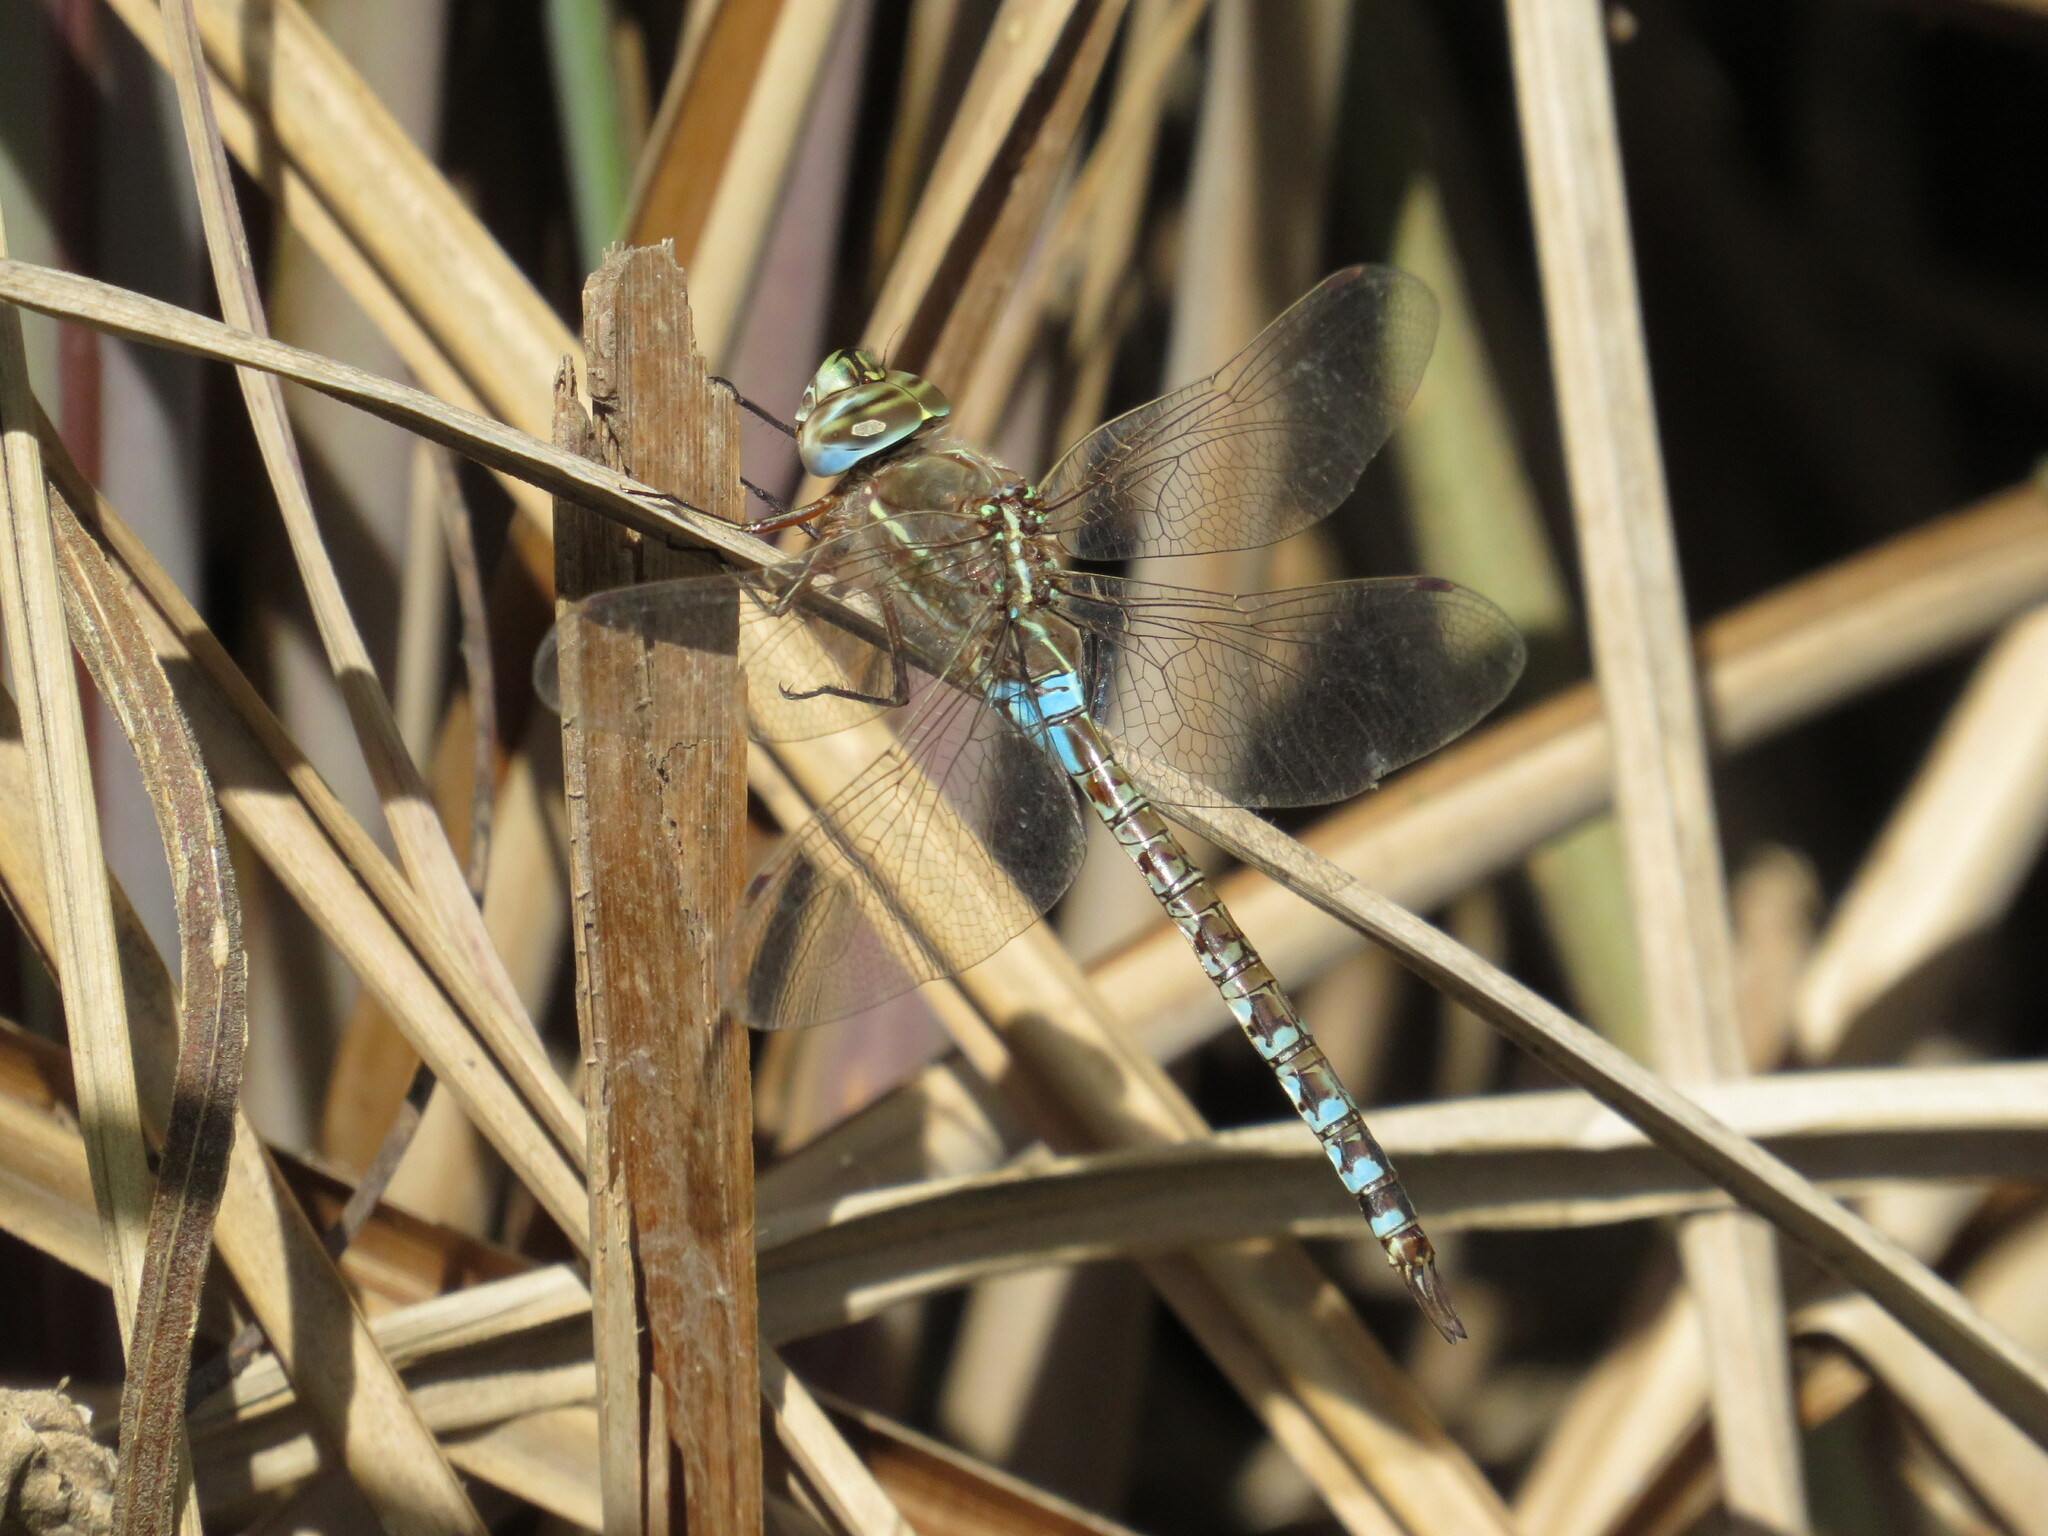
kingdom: Animalia
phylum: Arthropoda
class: Insecta
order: Odonata
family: Aeshnidae
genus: Rhionaeschna
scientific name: Rhionaeschna bonariensis
